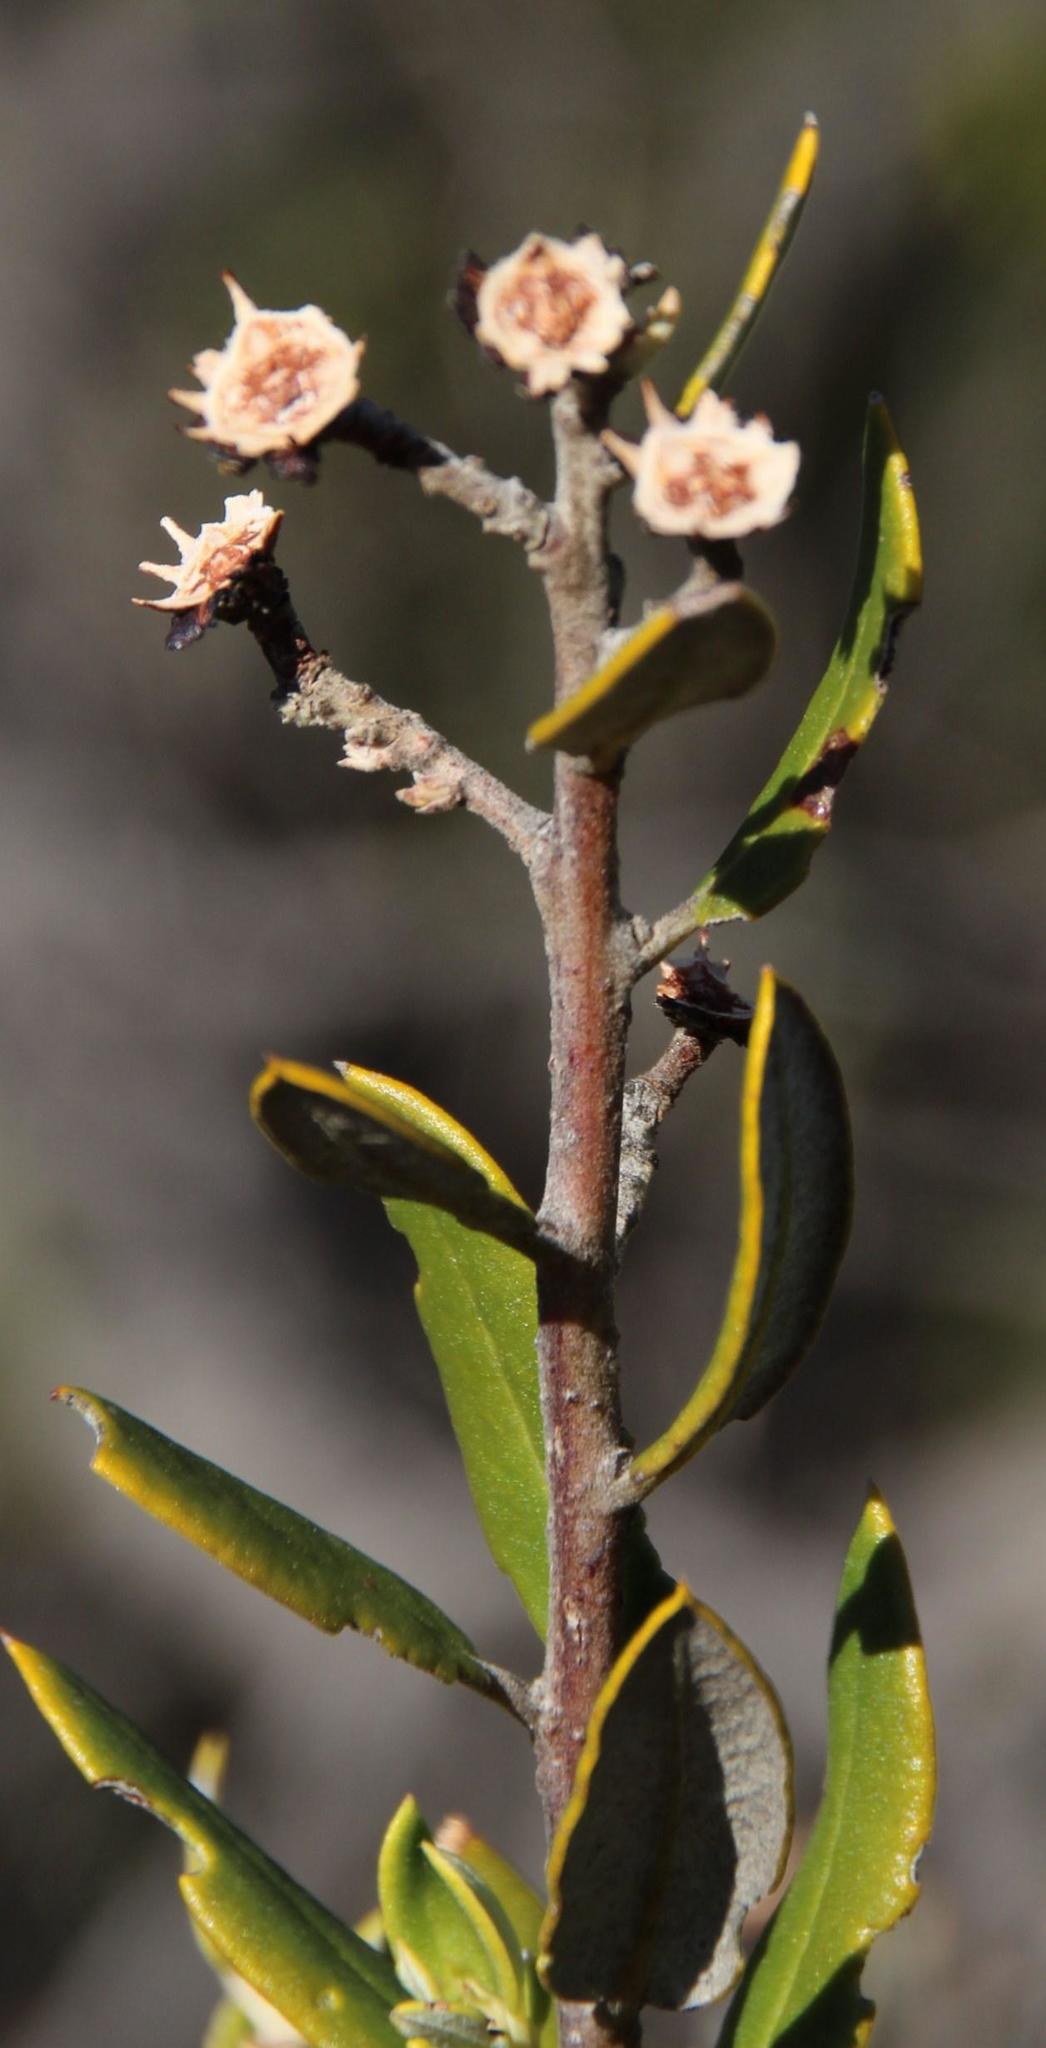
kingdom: Plantae
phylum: Tracheophyta
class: Magnoliopsida
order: Rosales
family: Rhamnaceae
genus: Phylica
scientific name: Phylica oleifolia
